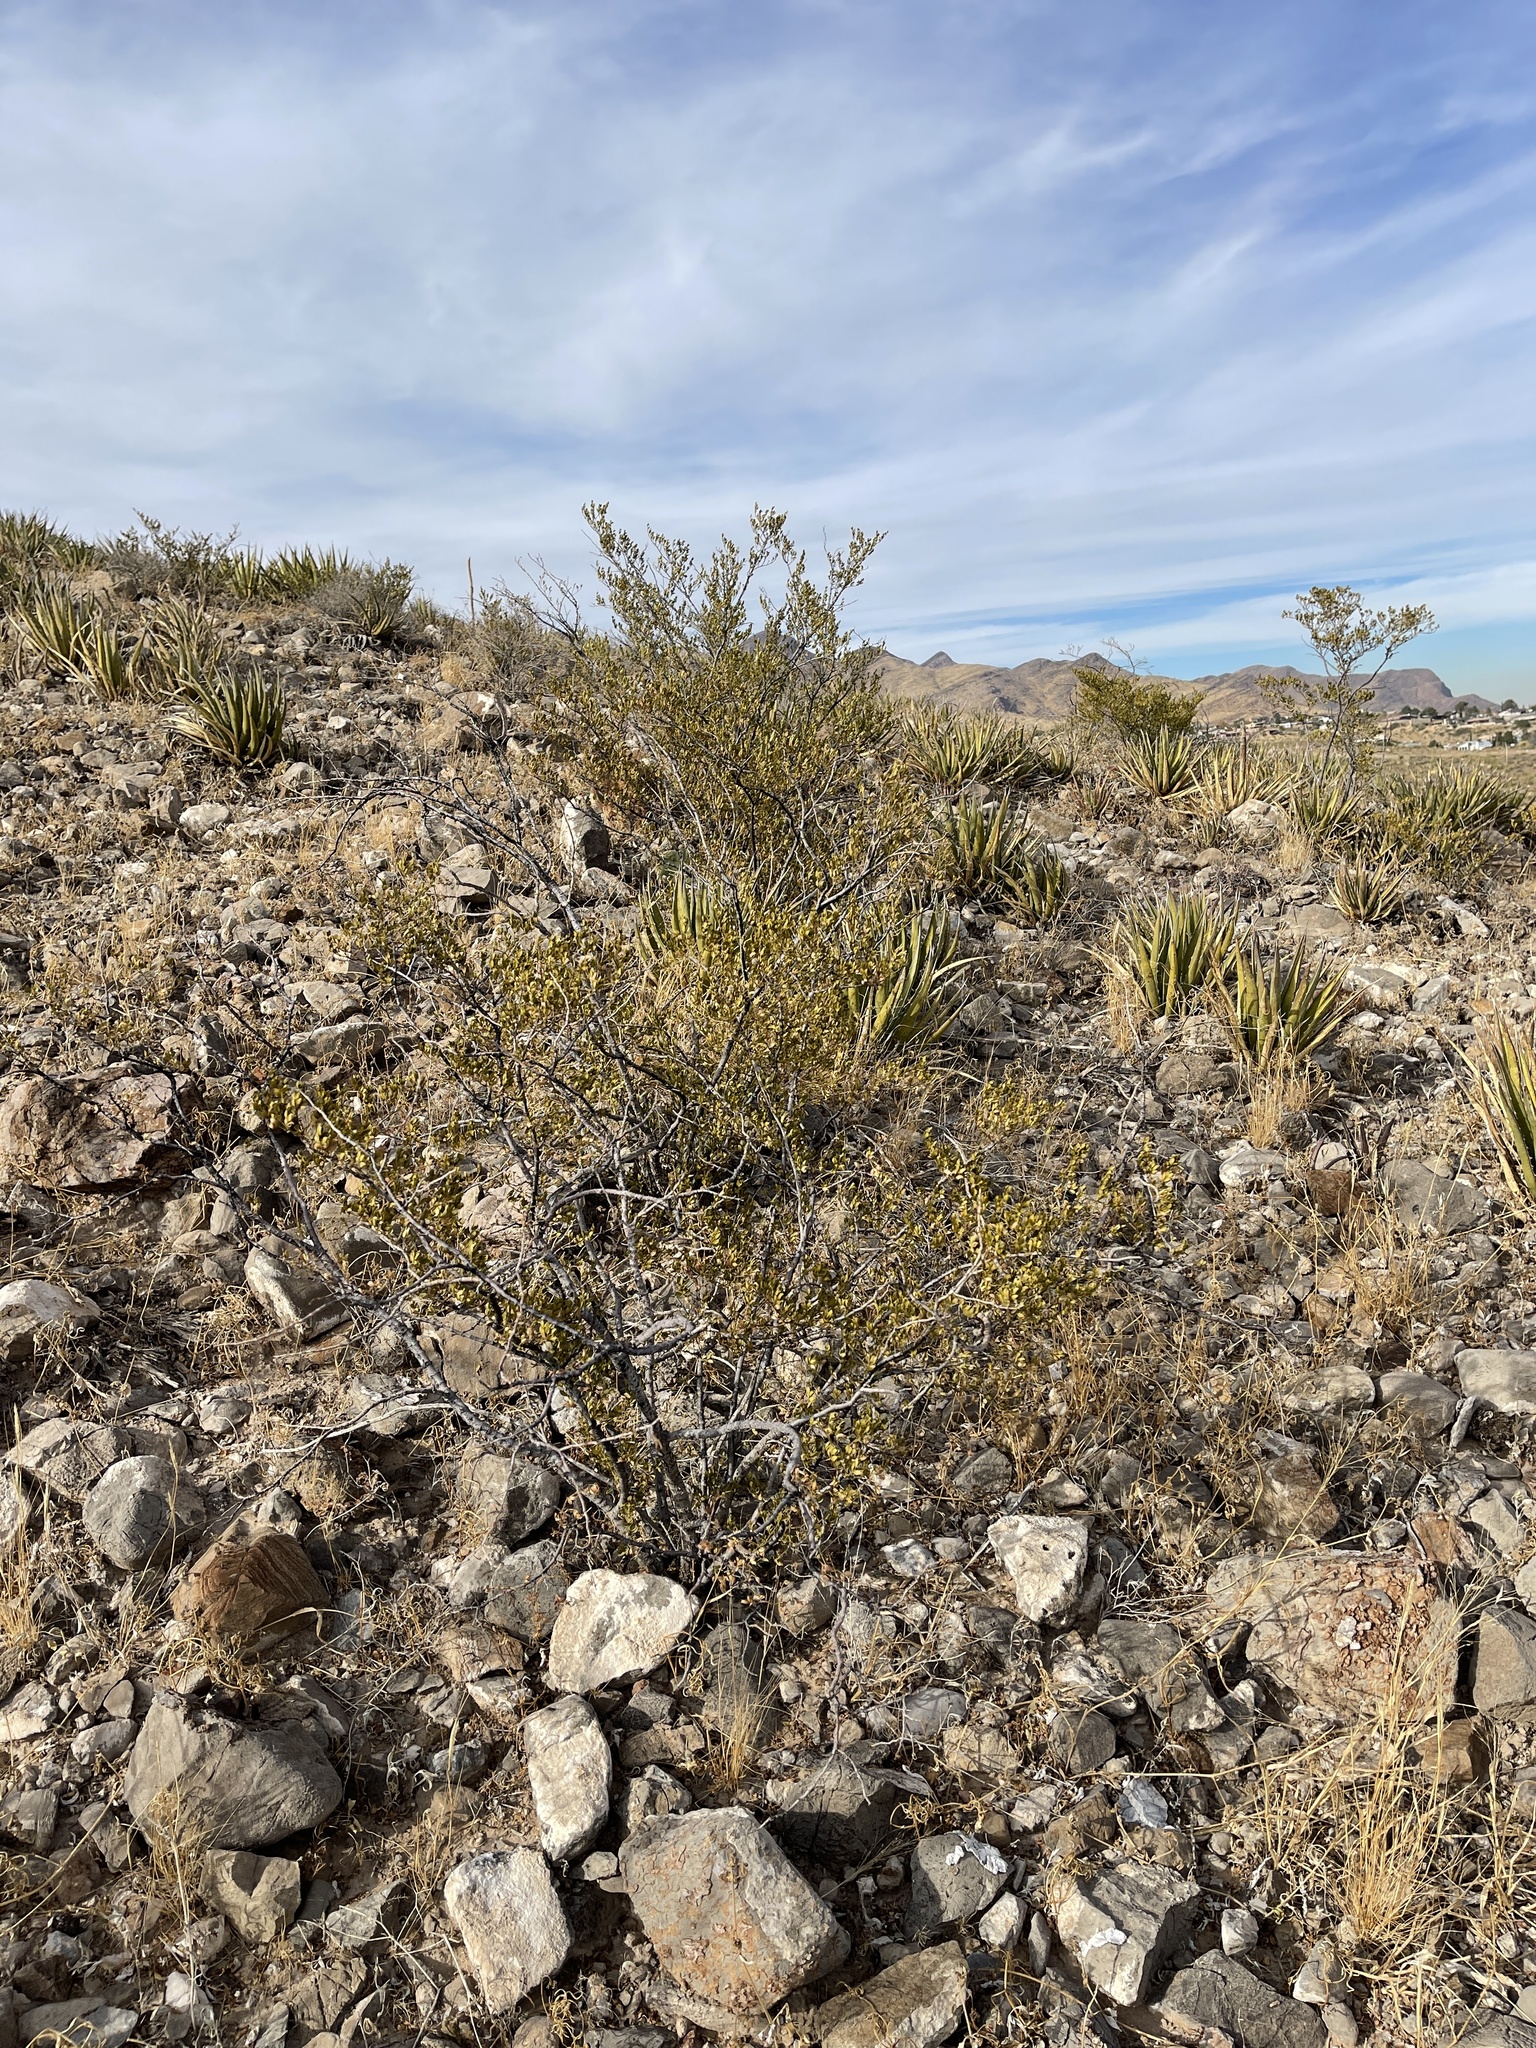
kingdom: Plantae
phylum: Tracheophyta
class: Magnoliopsida
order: Zygophyllales
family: Zygophyllaceae
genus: Larrea
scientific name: Larrea tridentata
